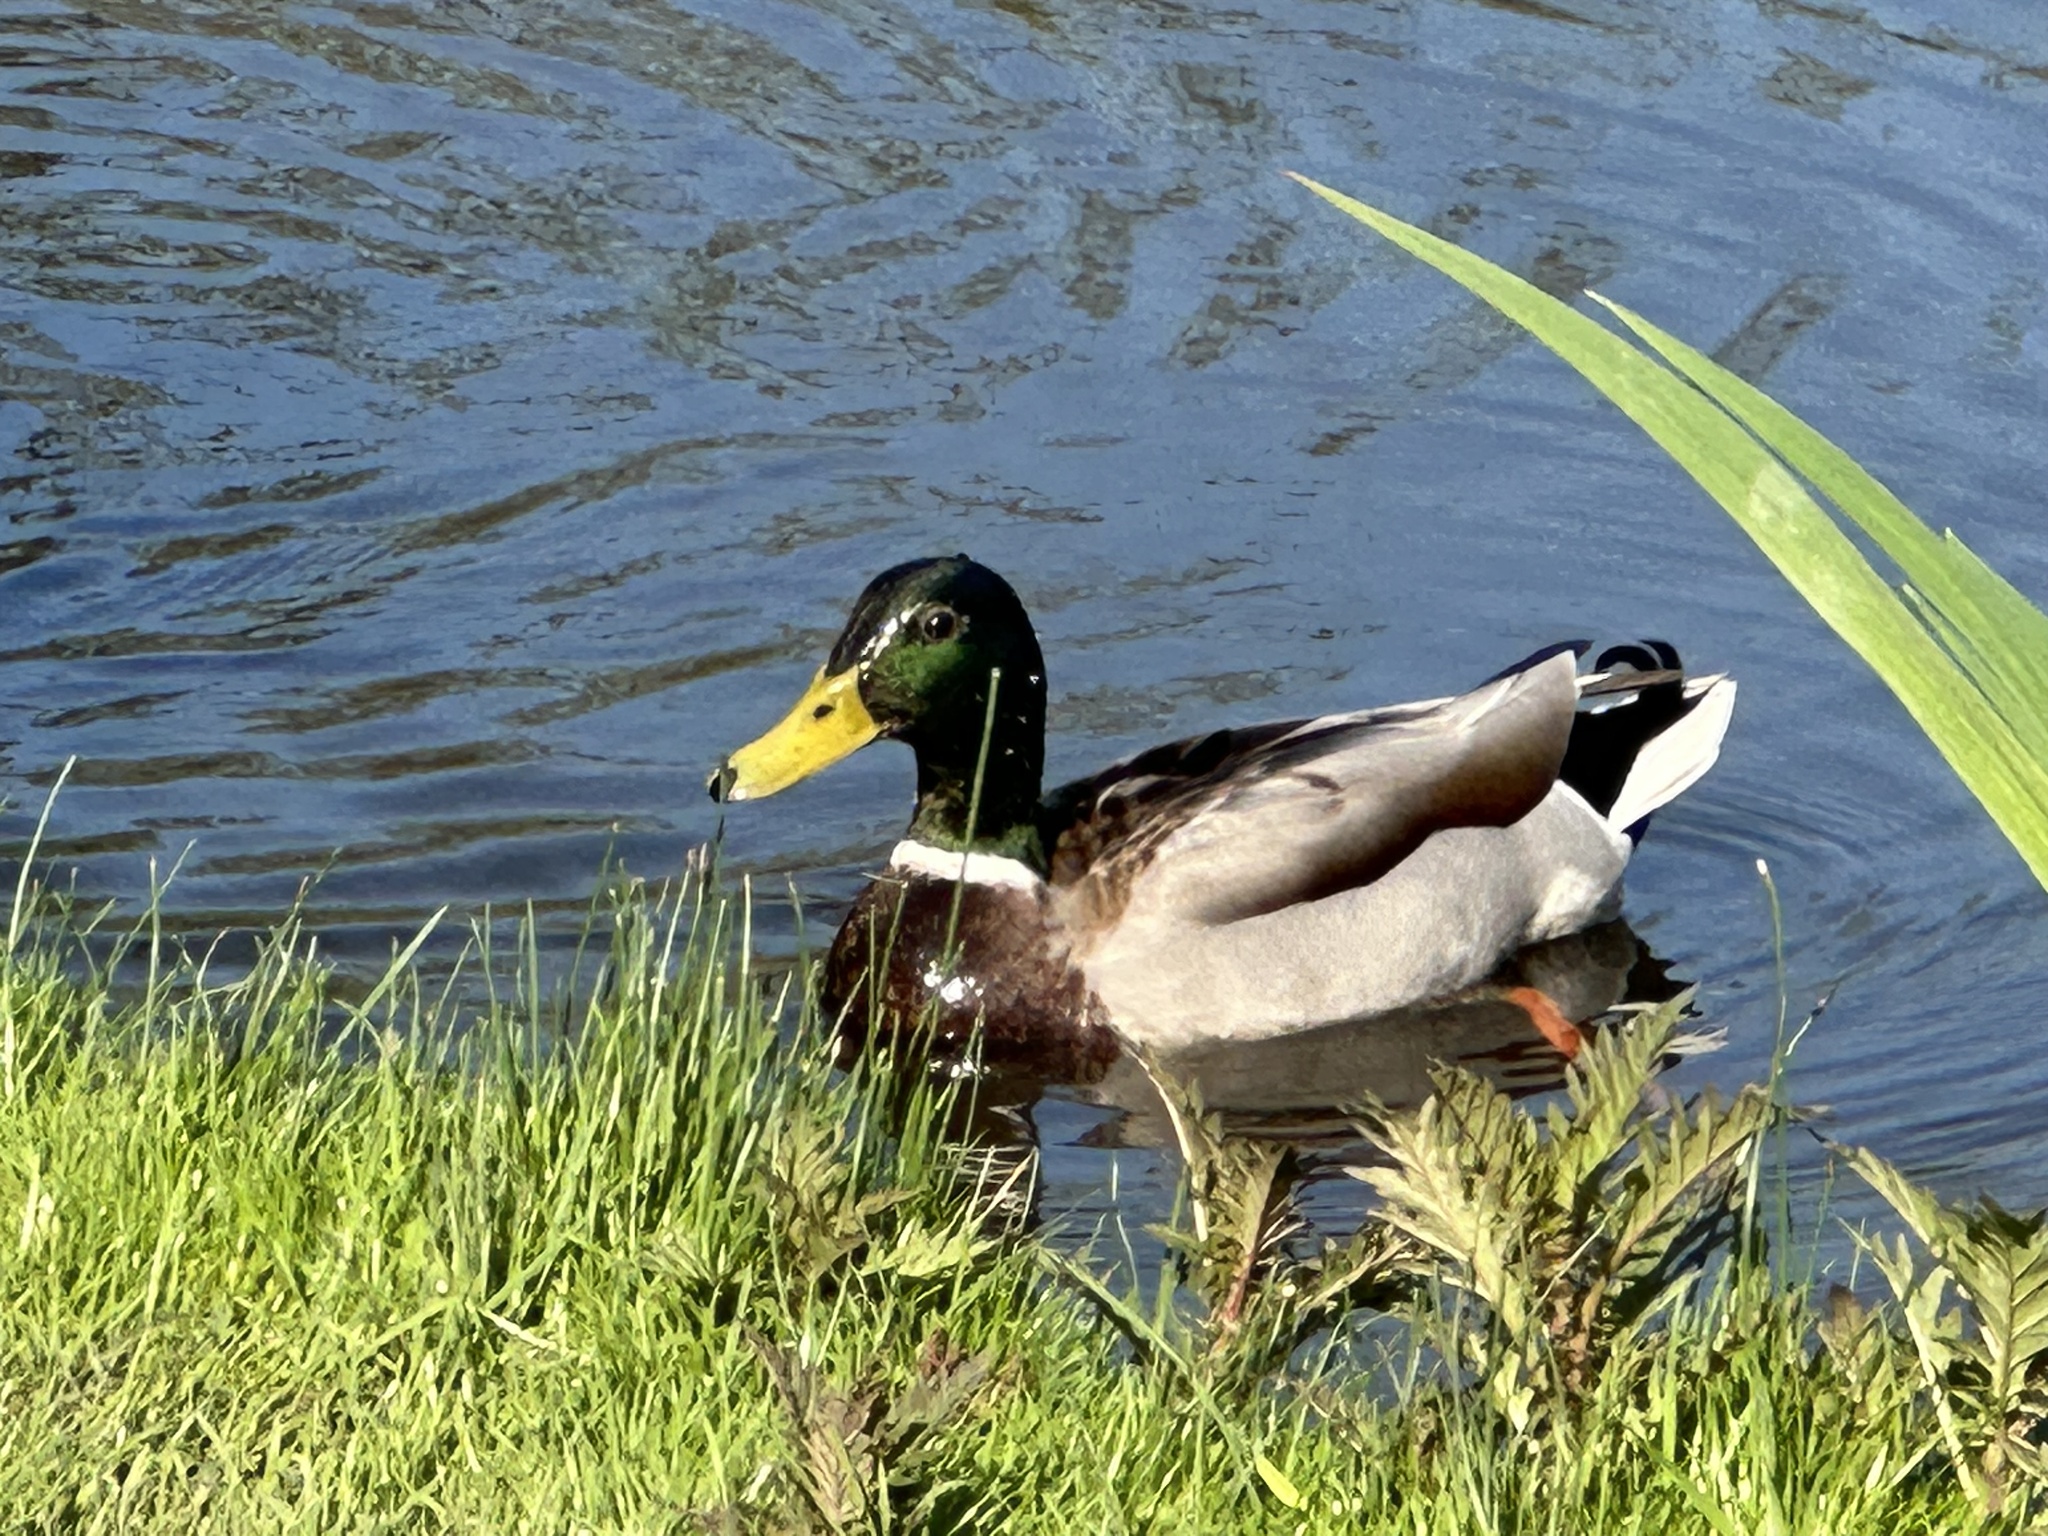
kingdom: Animalia
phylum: Chordata
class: Aves
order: Anseriformes
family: Anatidae
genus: Anas
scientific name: Anas platyrhynchos
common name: Mallard
